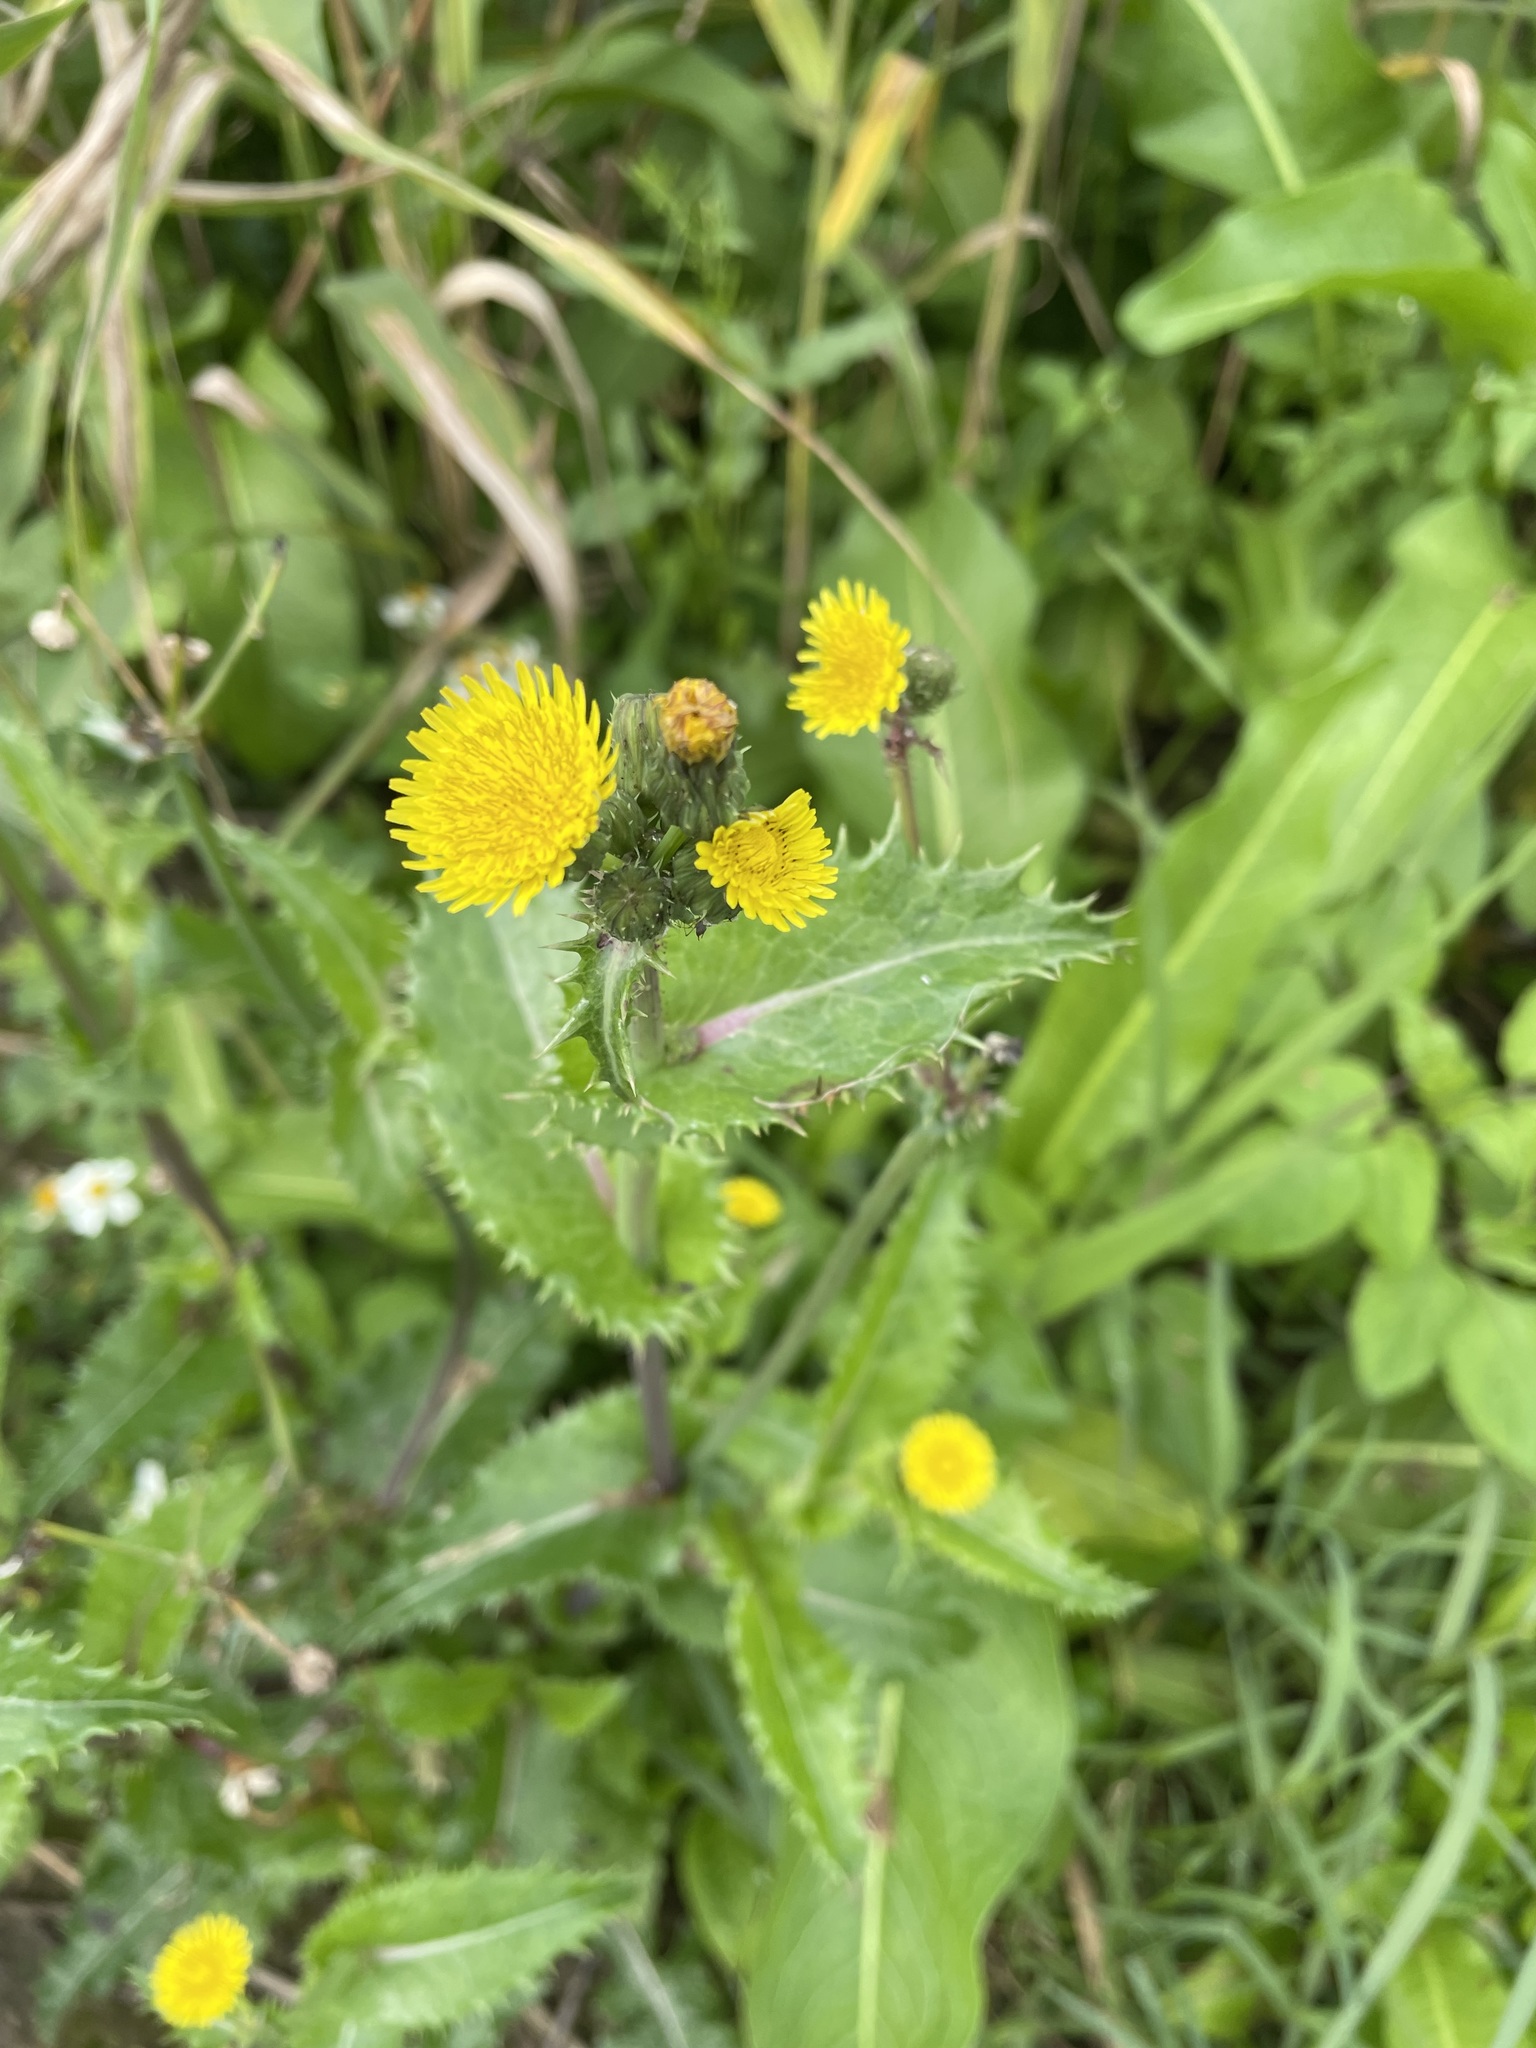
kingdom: Plantae
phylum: Tracheophyta
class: Magnoliopsida
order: Asterales
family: Asteraceae
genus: Sonchus
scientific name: Sonchus asper
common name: Prickly sow-thistle
